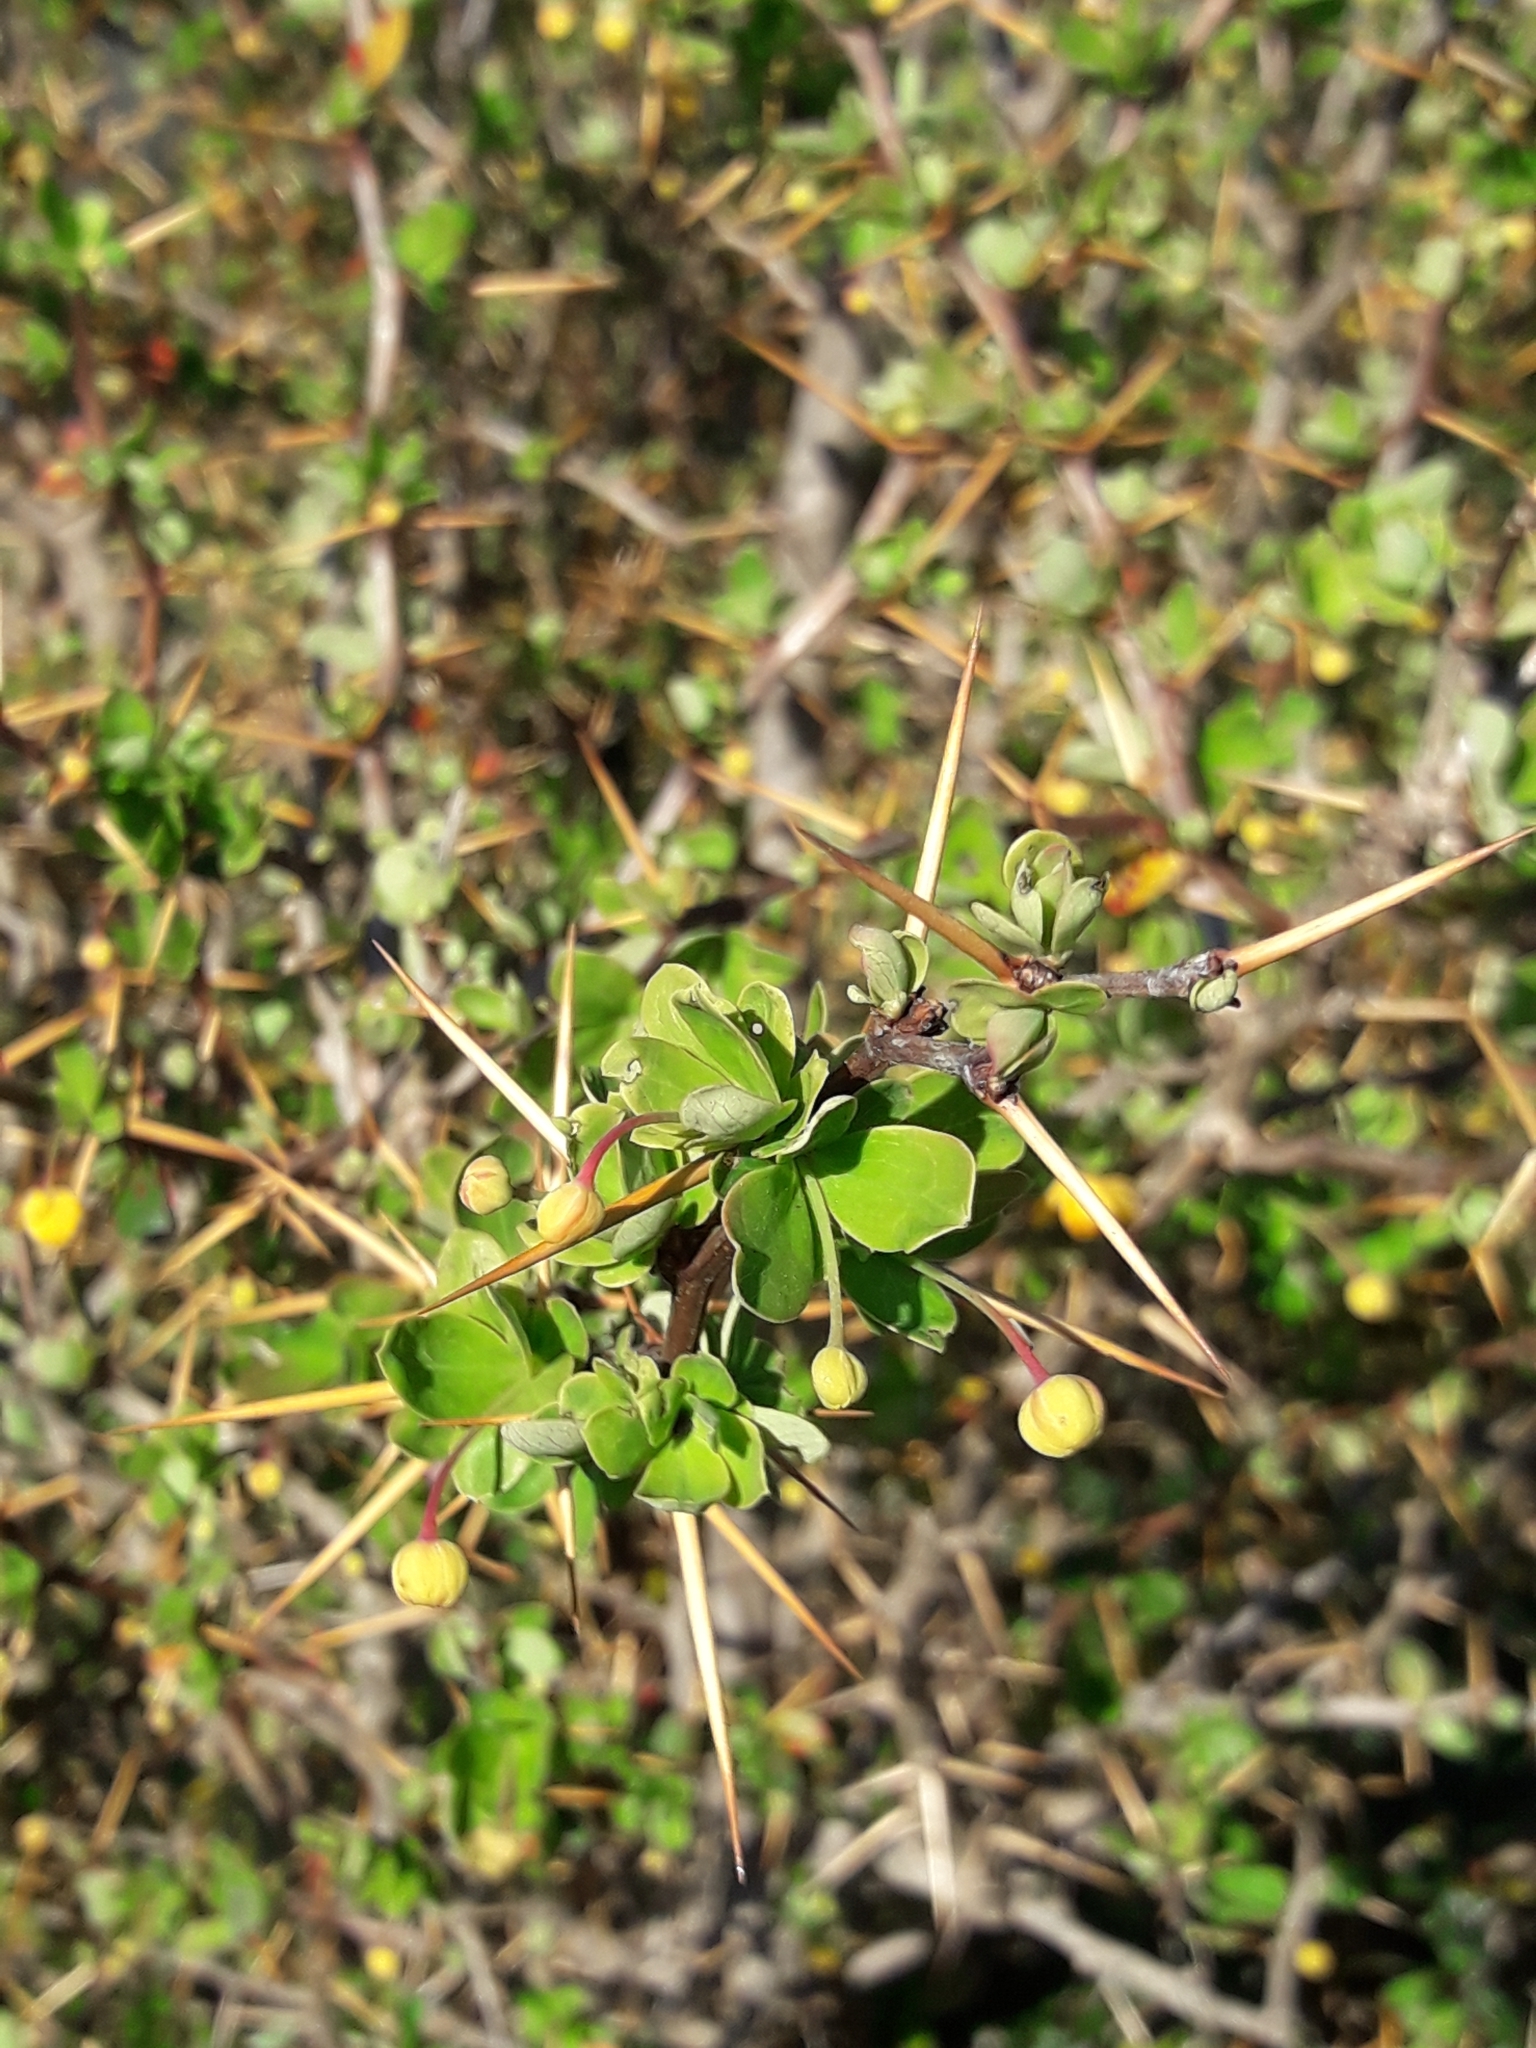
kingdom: Plantae
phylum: Tracheophyta
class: Magnoliopsida
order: Ranunculales
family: Berberidaceae
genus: Berberis
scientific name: Berberis microphylla
